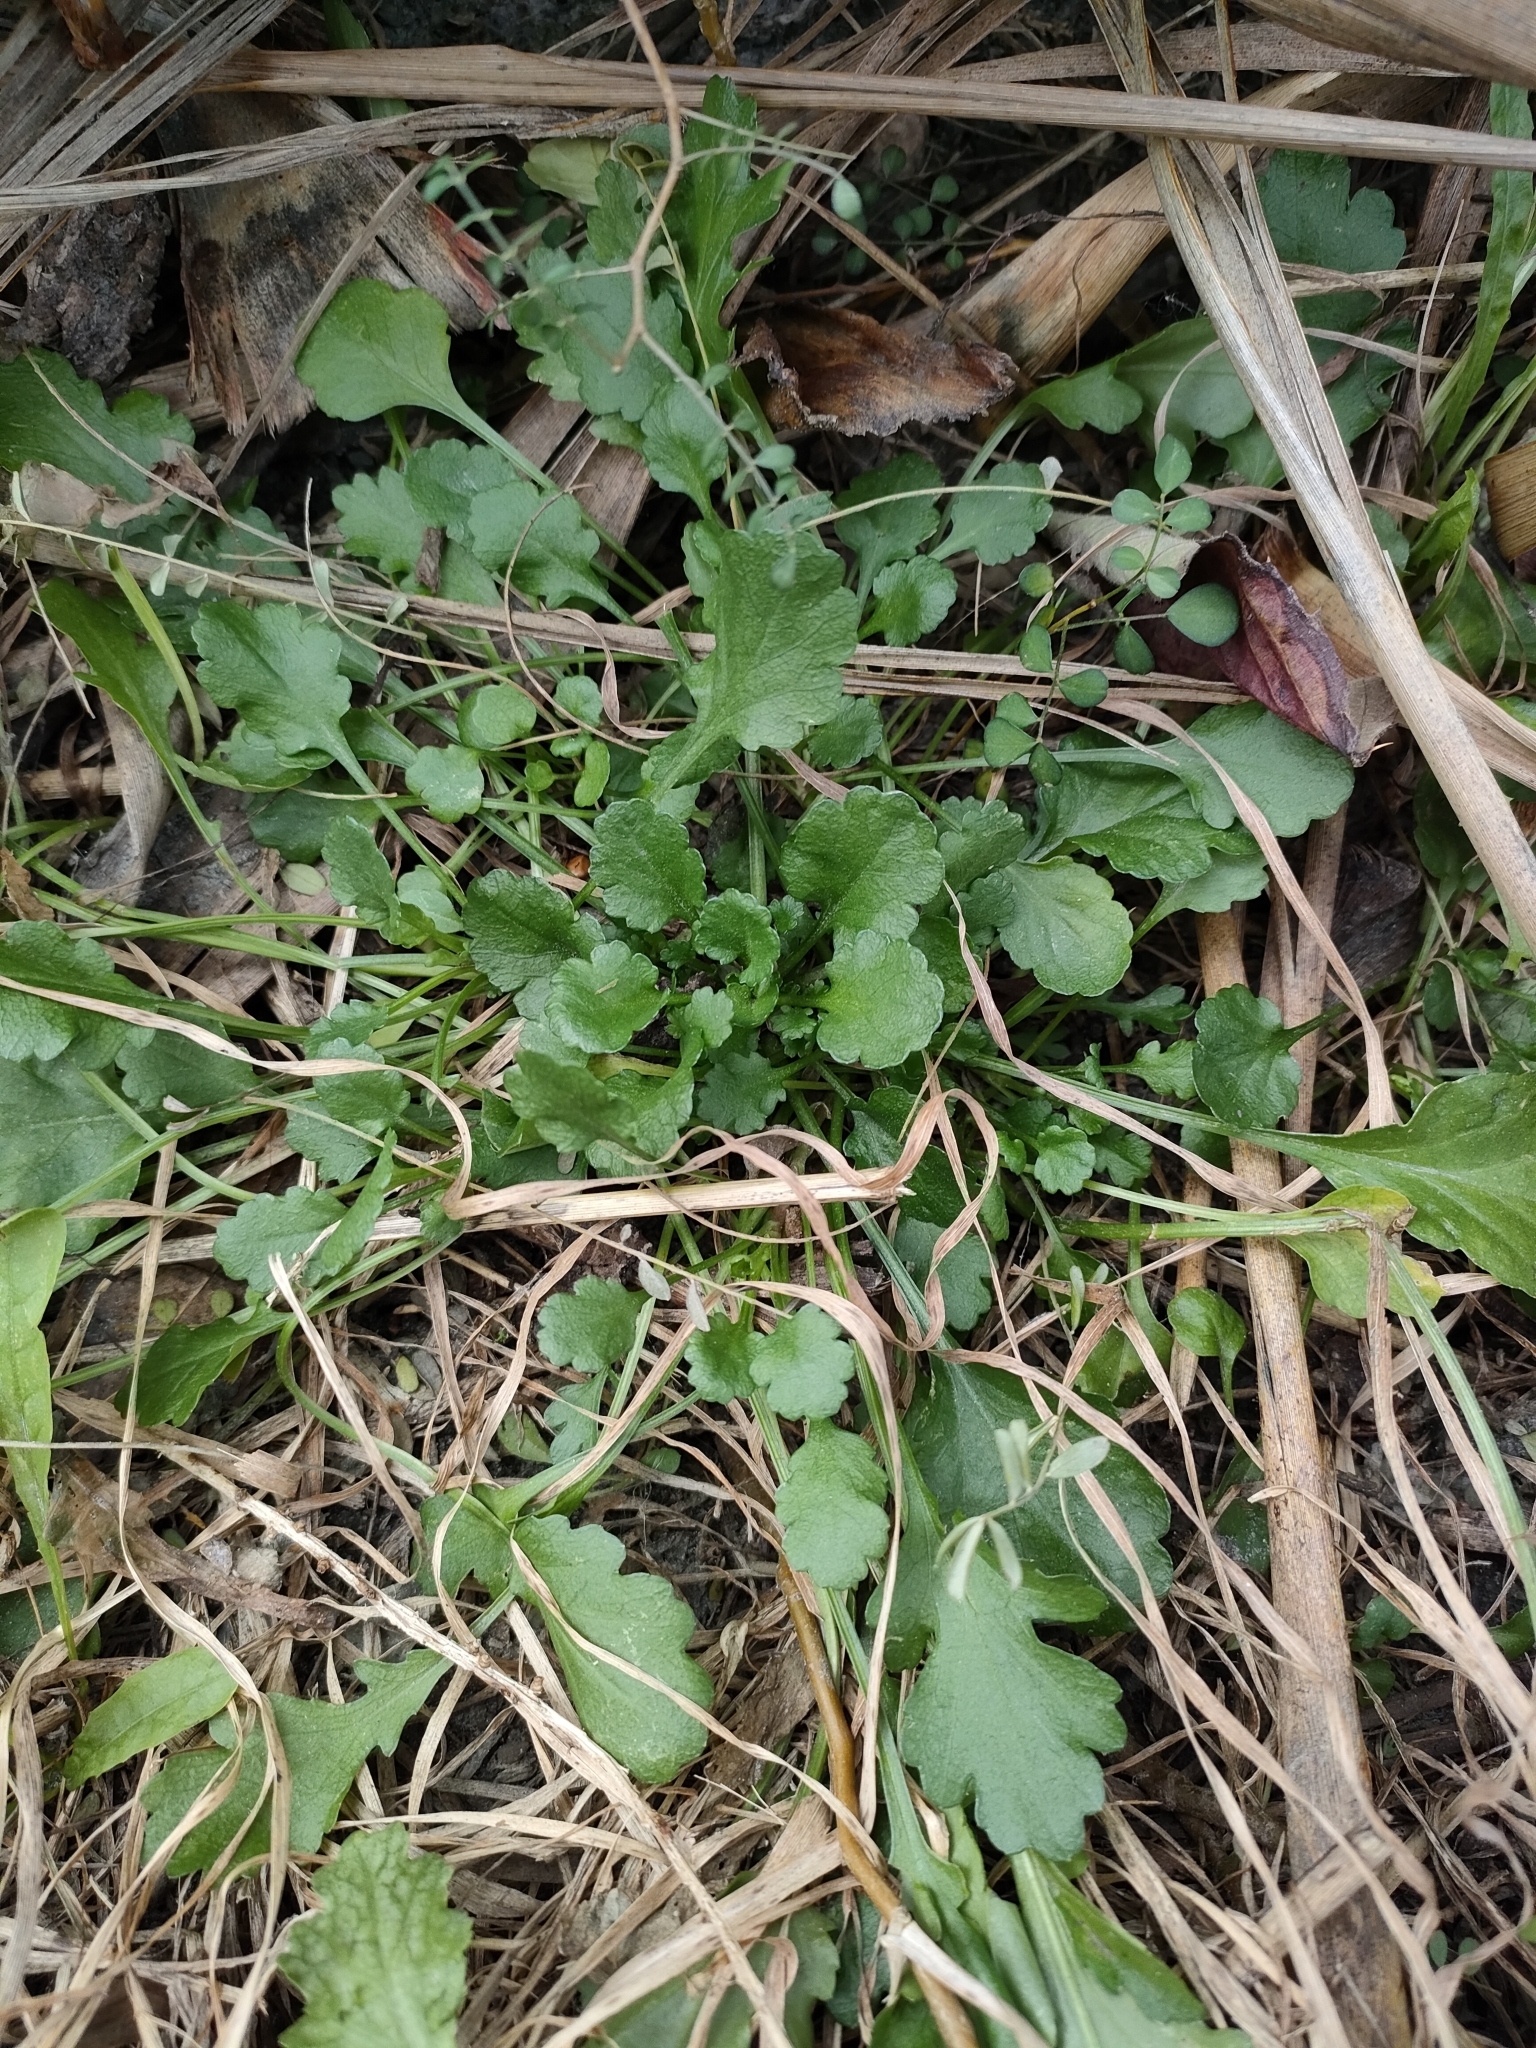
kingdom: Plantae
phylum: Tracheophyta
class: Magnoliopsida
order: Asterales
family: Asteraceae
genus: Leucanthemum
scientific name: Leucanthemum vulgare
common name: Oxeye daisy
